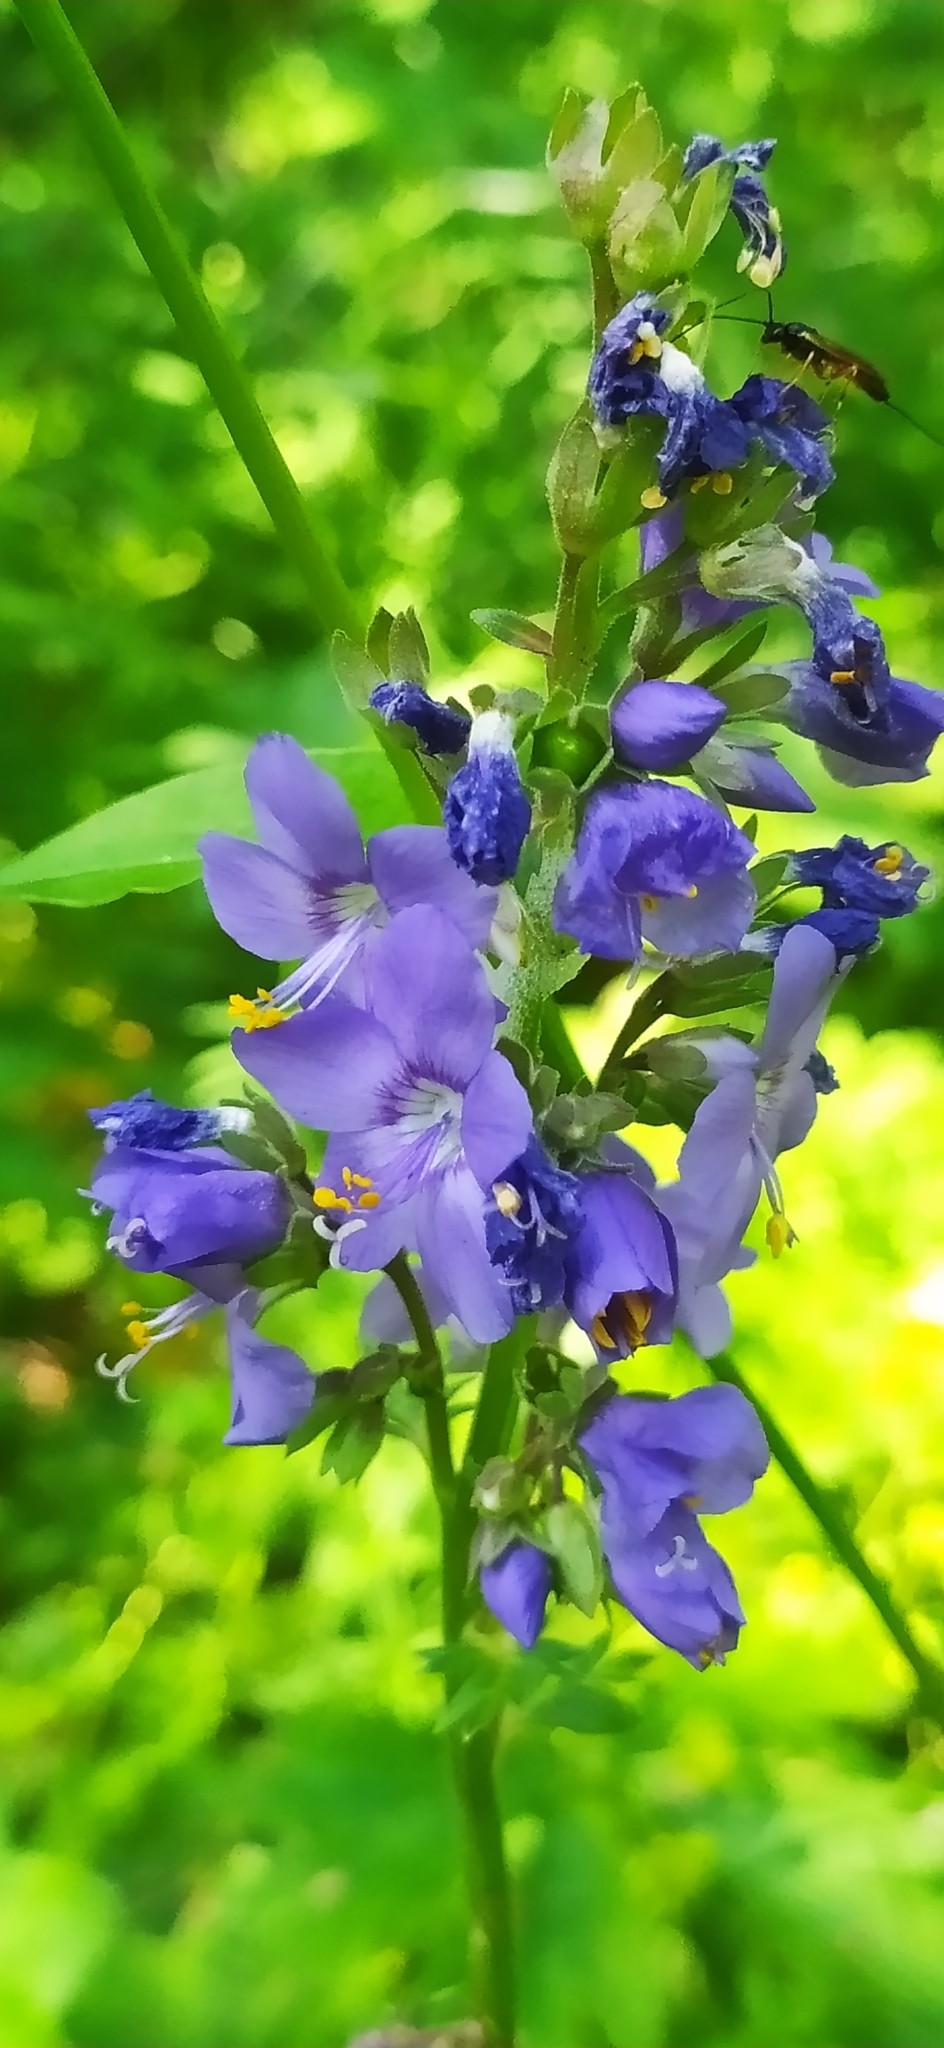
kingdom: Plantae
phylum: Tracheophyta
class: Magnoliopsida
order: Ericales
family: Polemoniaceae
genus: Polemonium
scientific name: Polemonium caeruleum
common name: Jacob's-ladder
